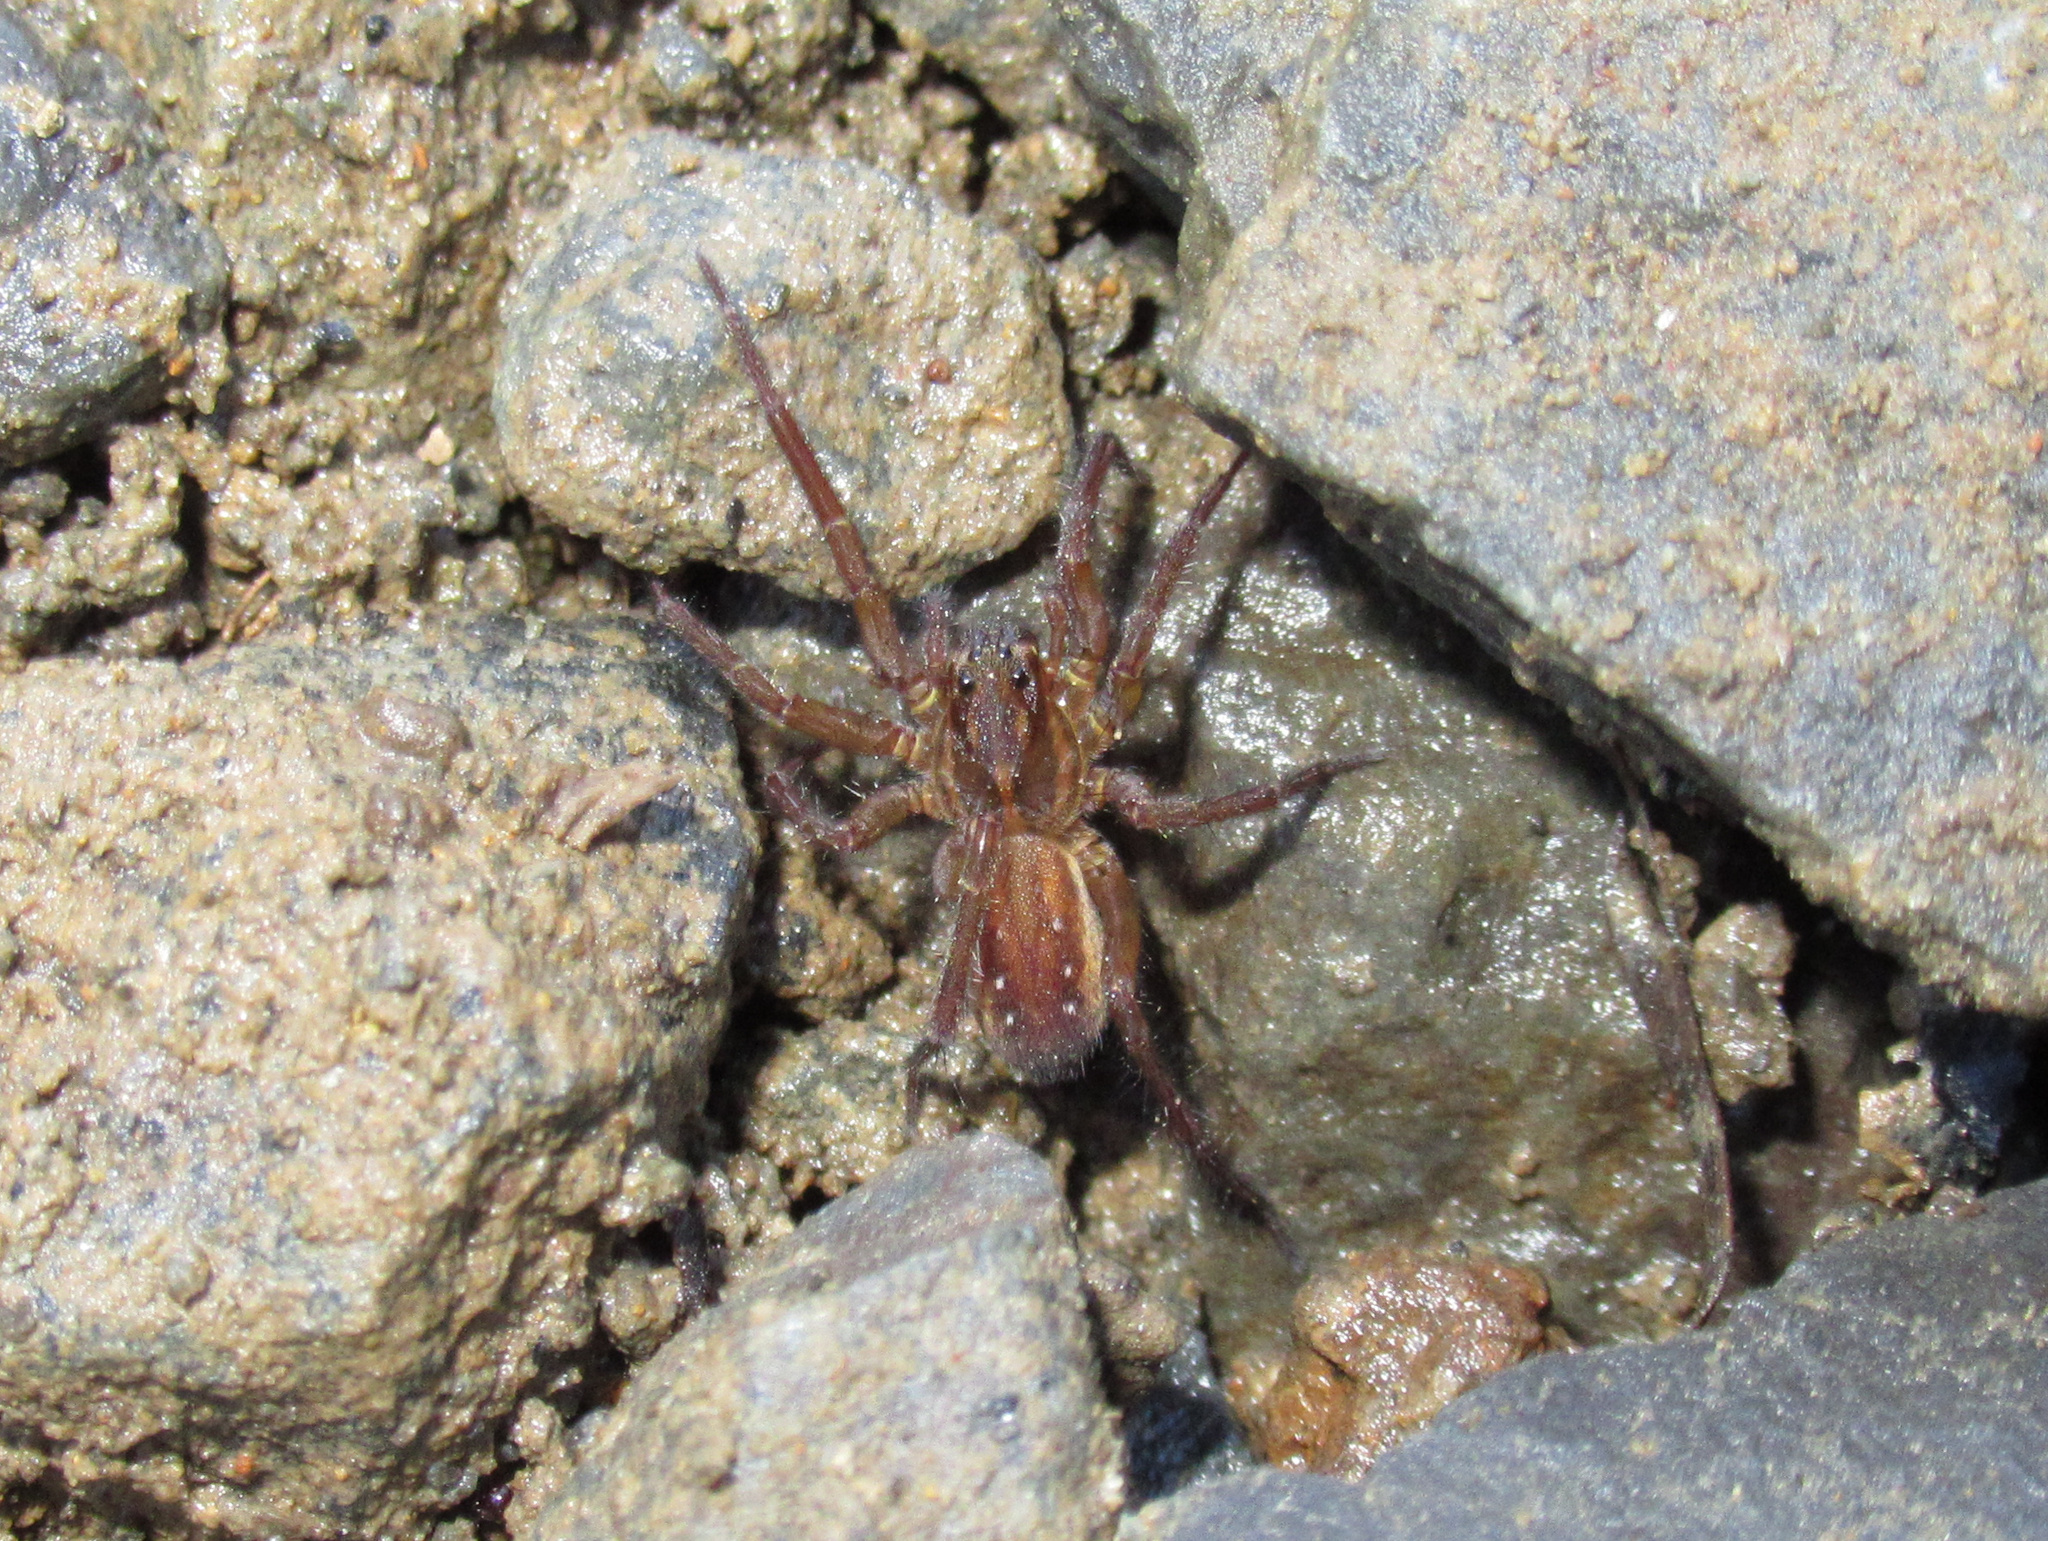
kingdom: Animalia
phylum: Arthropoda
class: Arachnida
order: Araneae
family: Lycosidae
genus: Allotrochosina
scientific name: Allotrochosina schauinslandi
